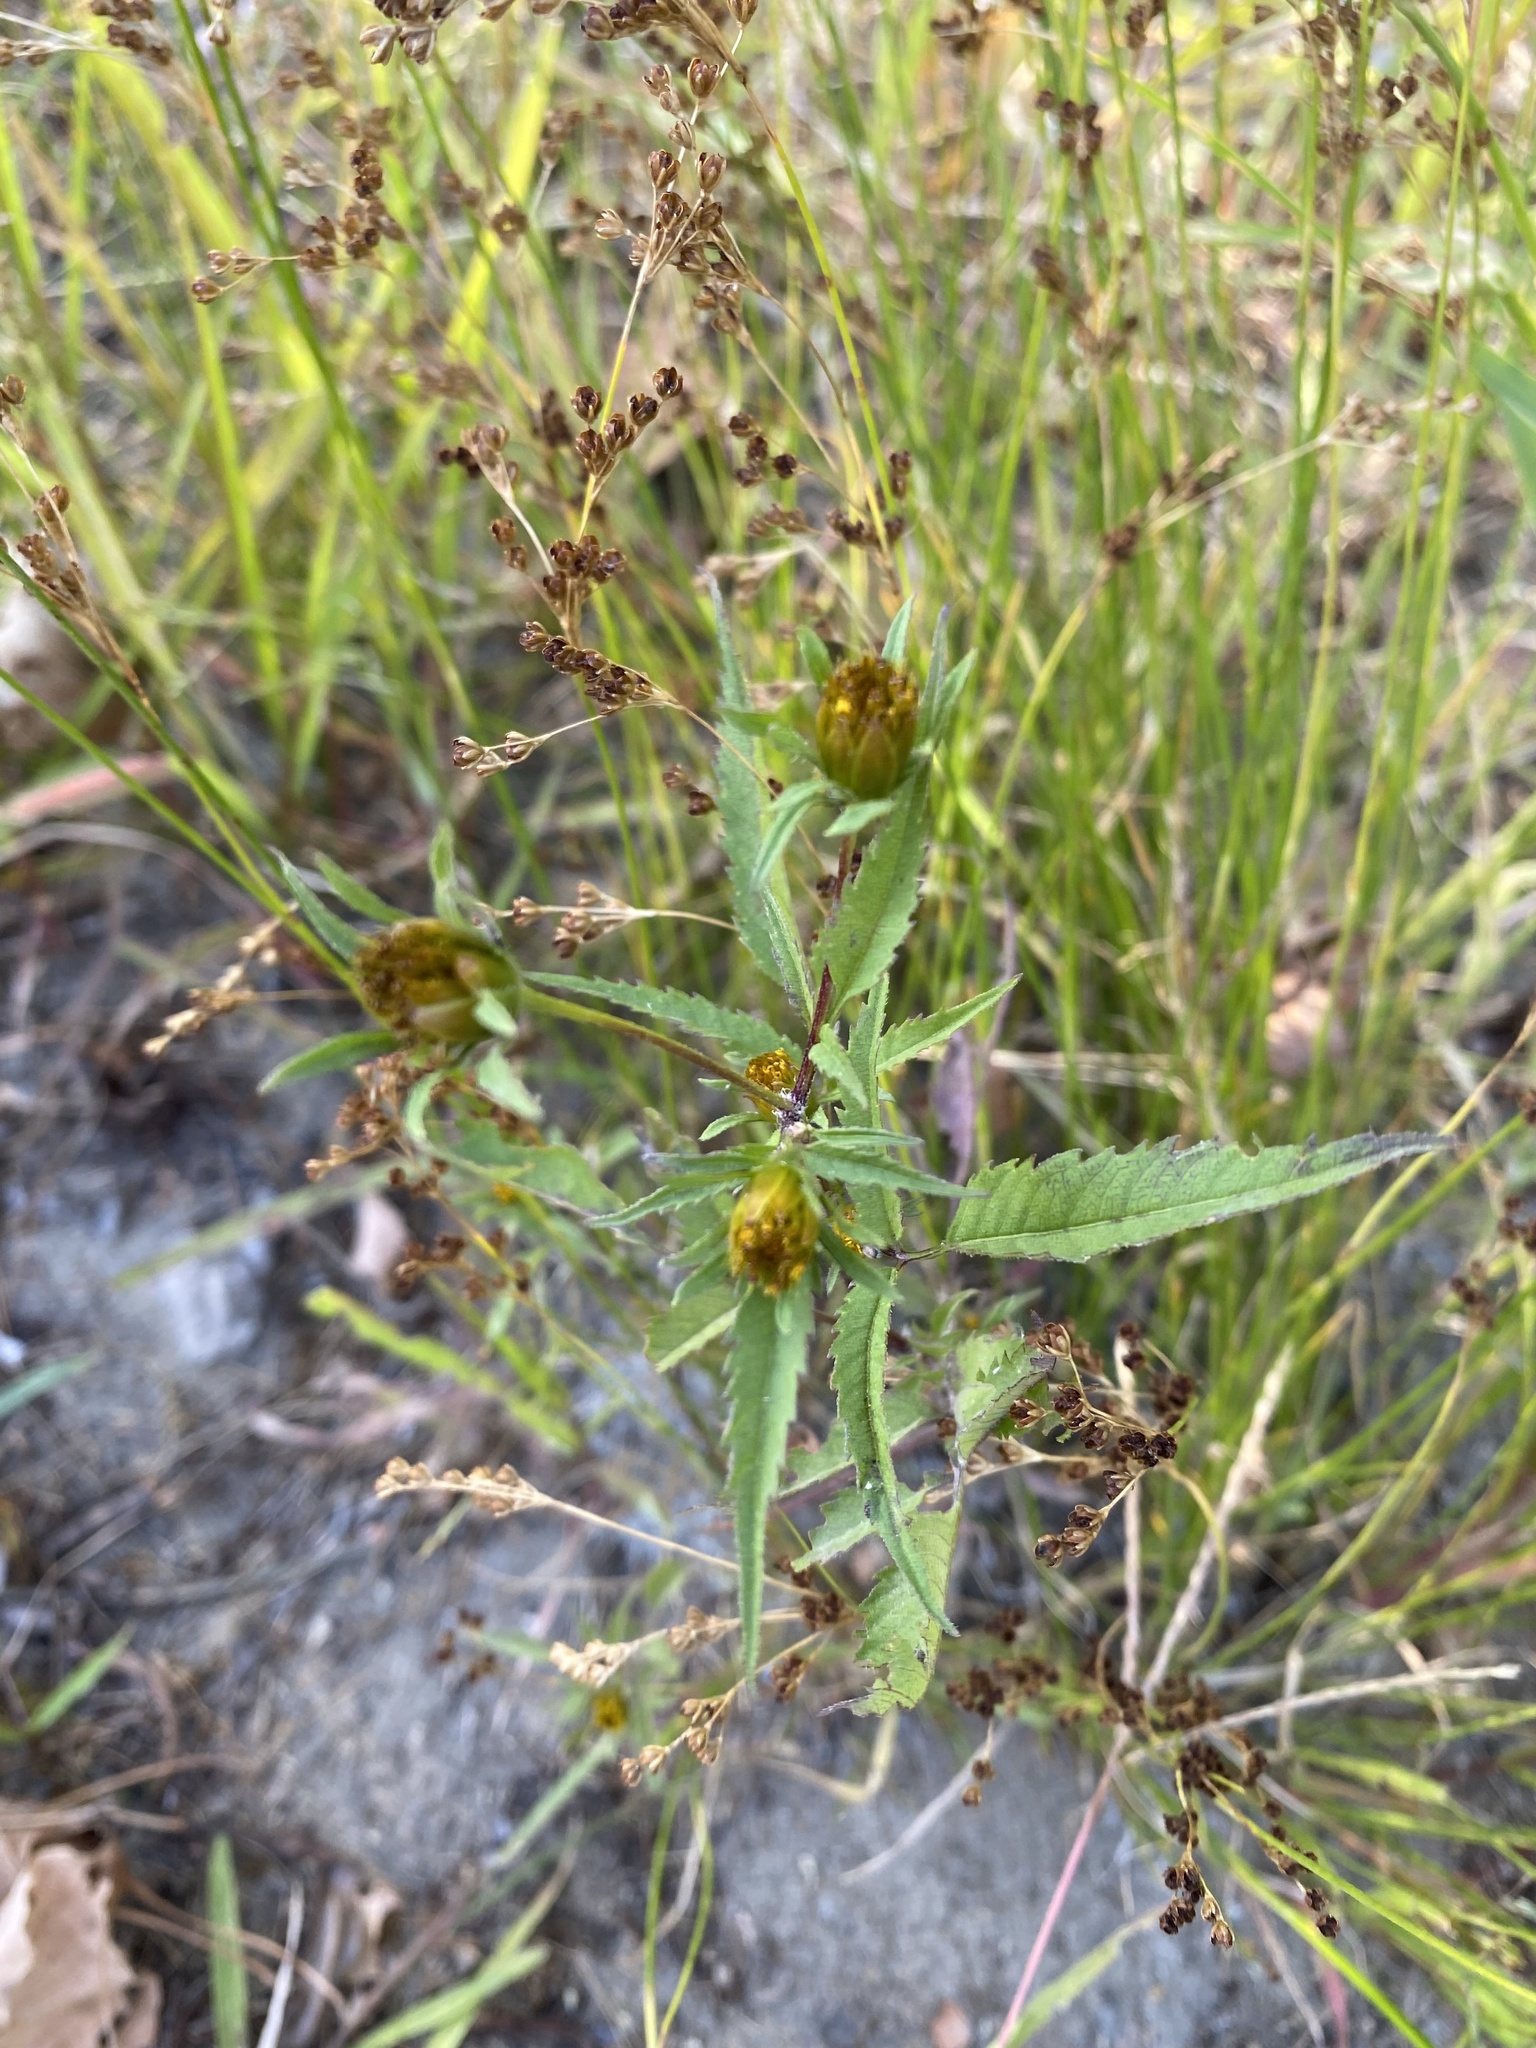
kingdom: Plantae
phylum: Tracheophyta
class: Magnoliopsida
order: Asterales
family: Asteraceae
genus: Bidens
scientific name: Bidens frondosa
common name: Beggarticks
